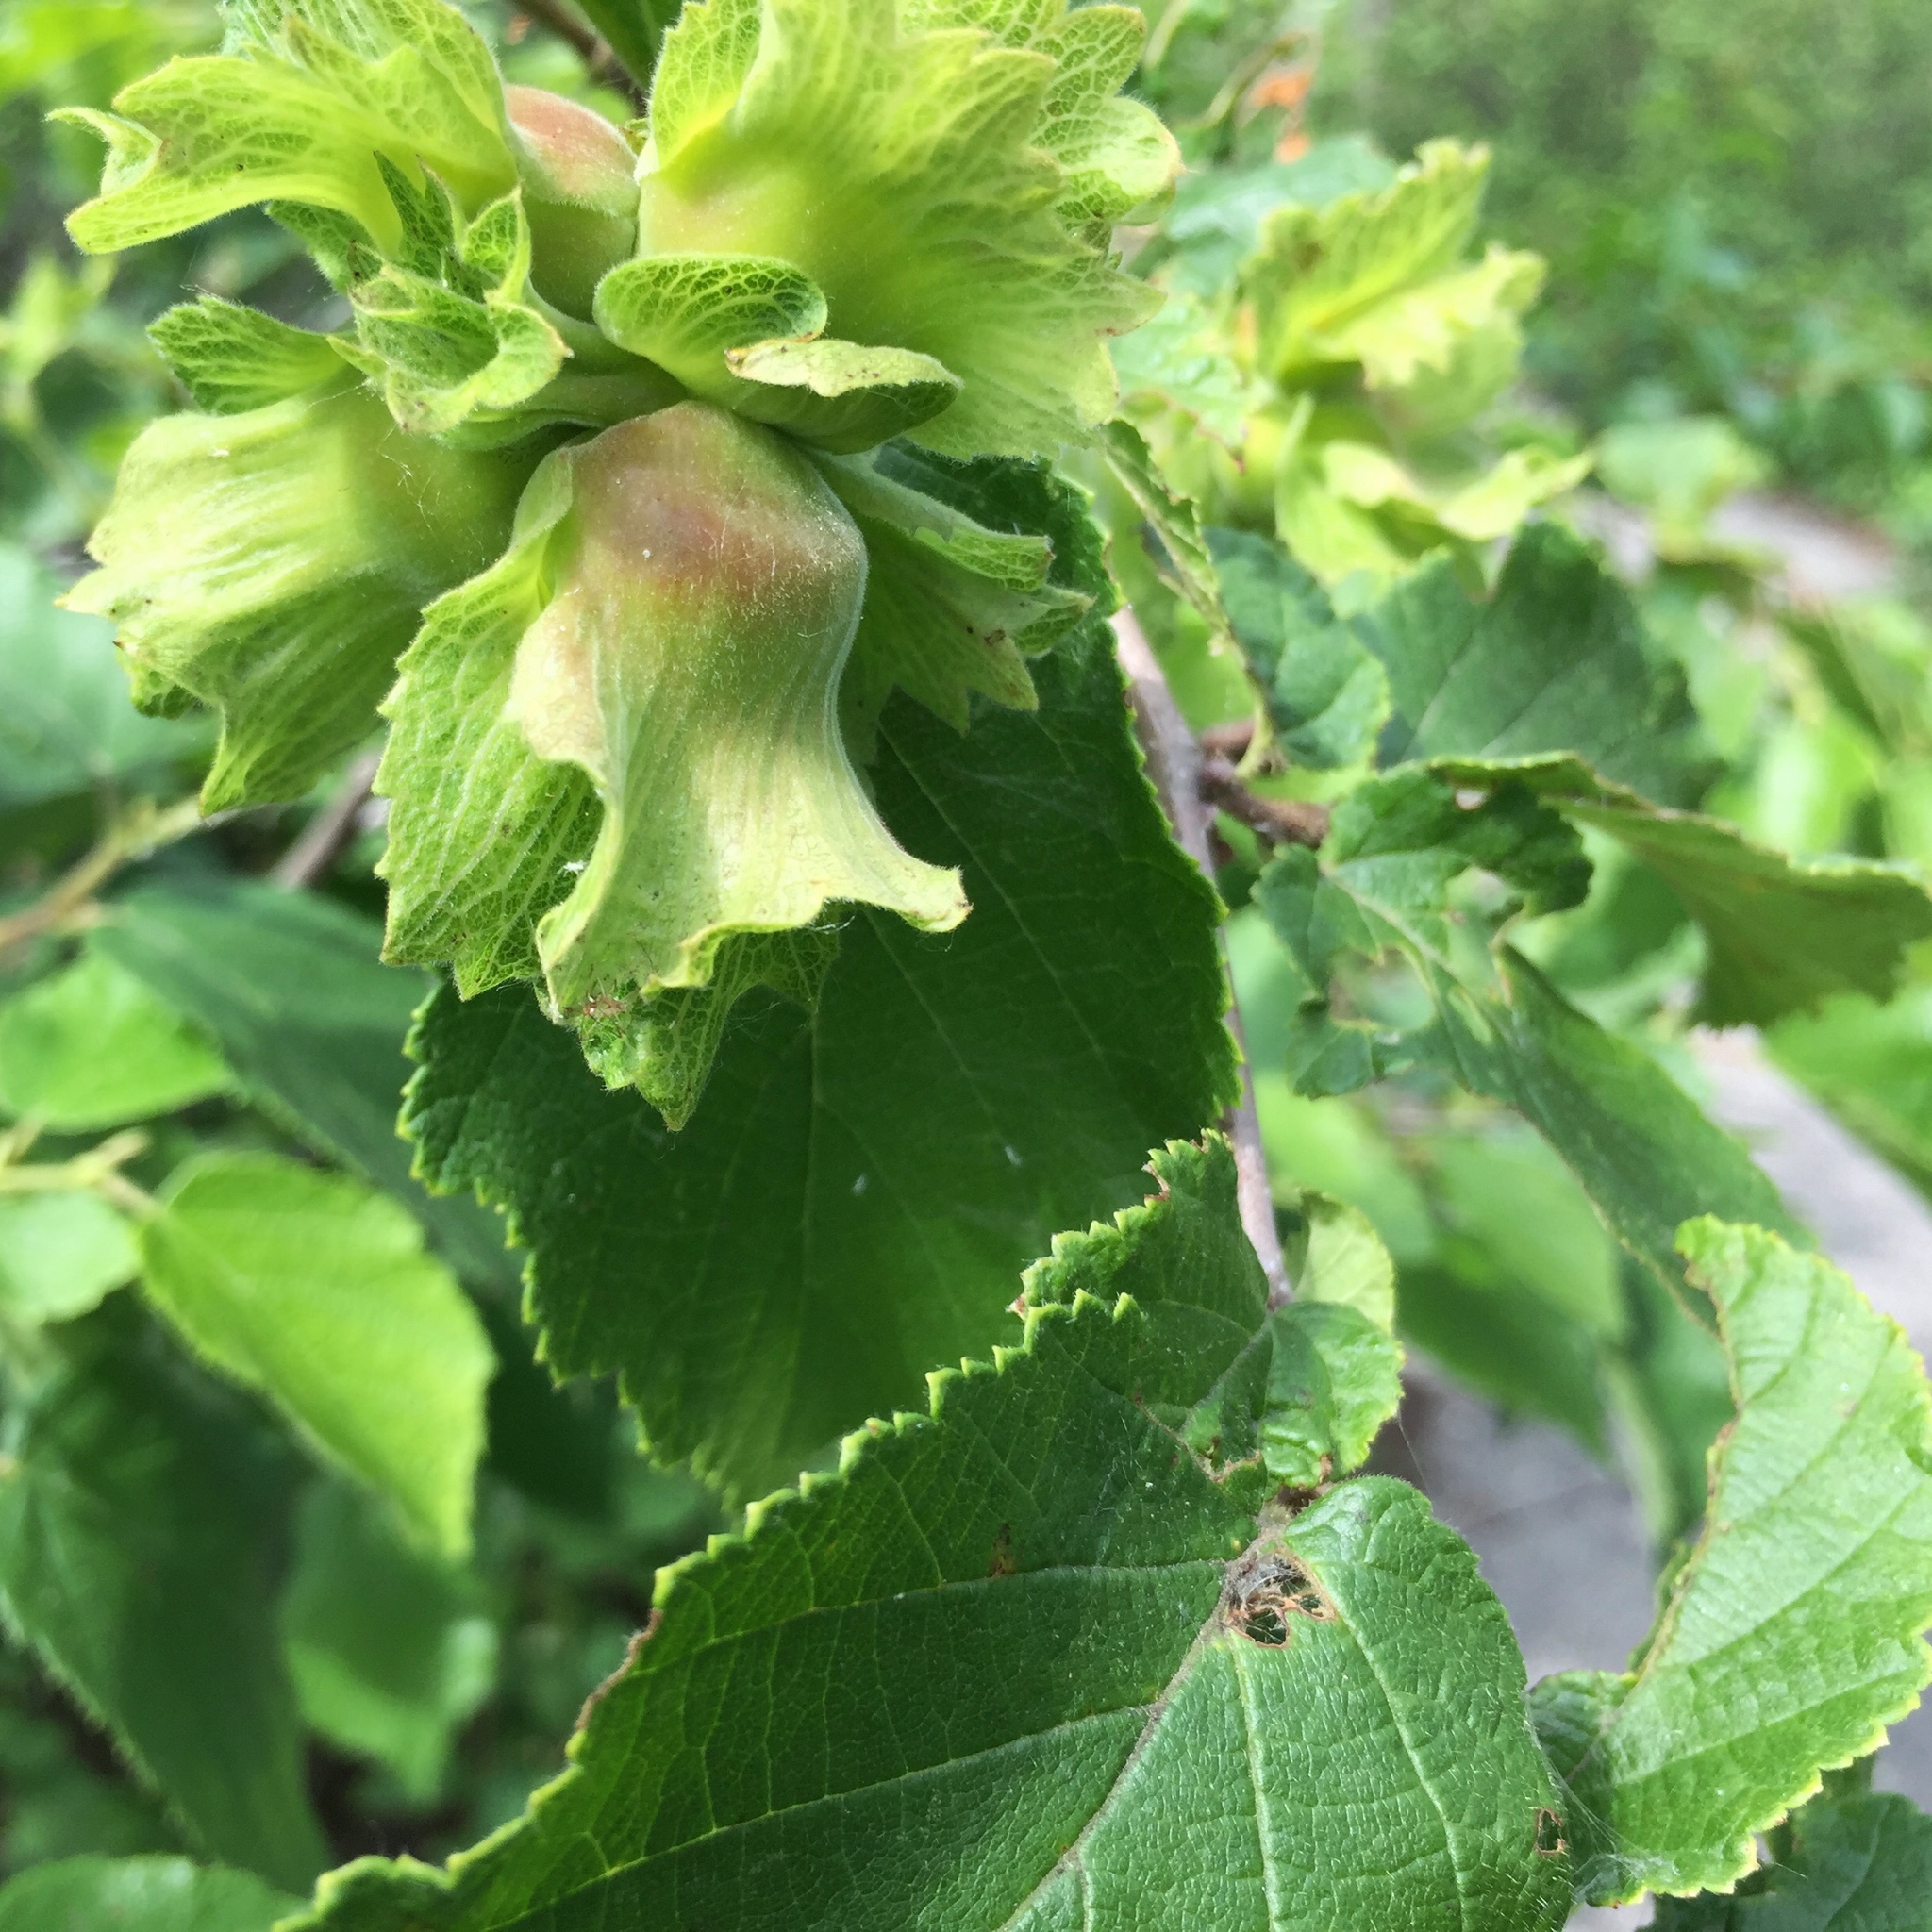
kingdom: Plantae
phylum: Tracheophyta
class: Magnoliopsida
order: Fagales
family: Betulaceae
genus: Corylus
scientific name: Corylus americana
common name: American hazel
